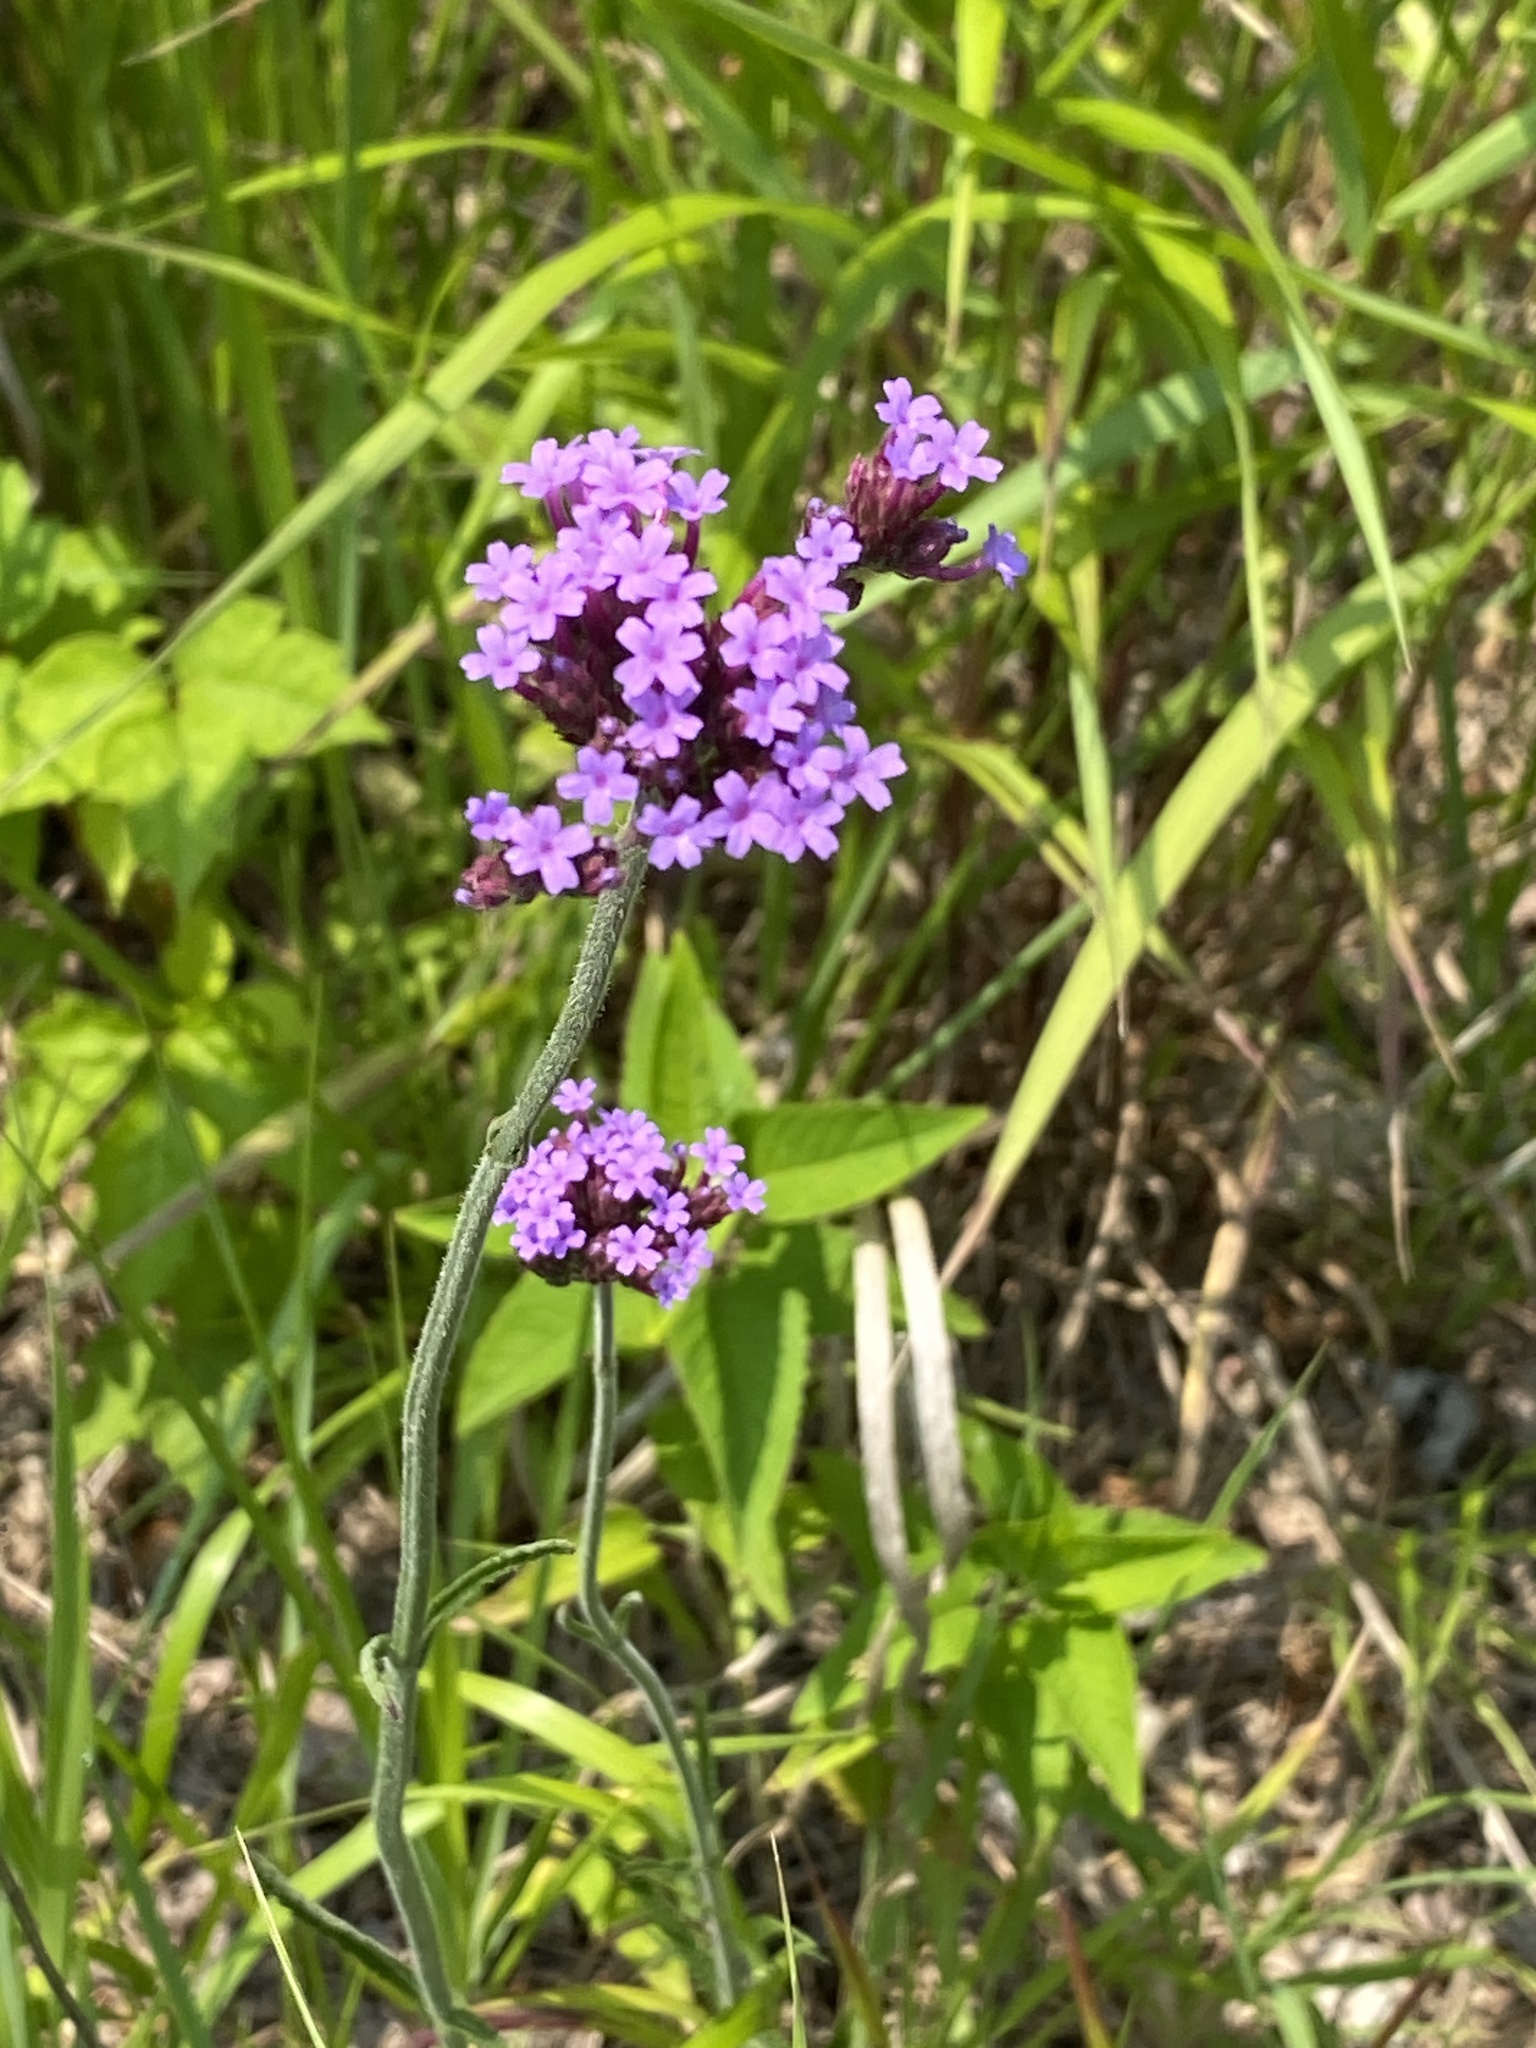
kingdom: Plantae
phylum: Tracheophyta
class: Magnoliopsida
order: Lamiales
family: Verbenaceae
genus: Verbena
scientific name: Verbena bonariensis
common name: Purpletop vervain
